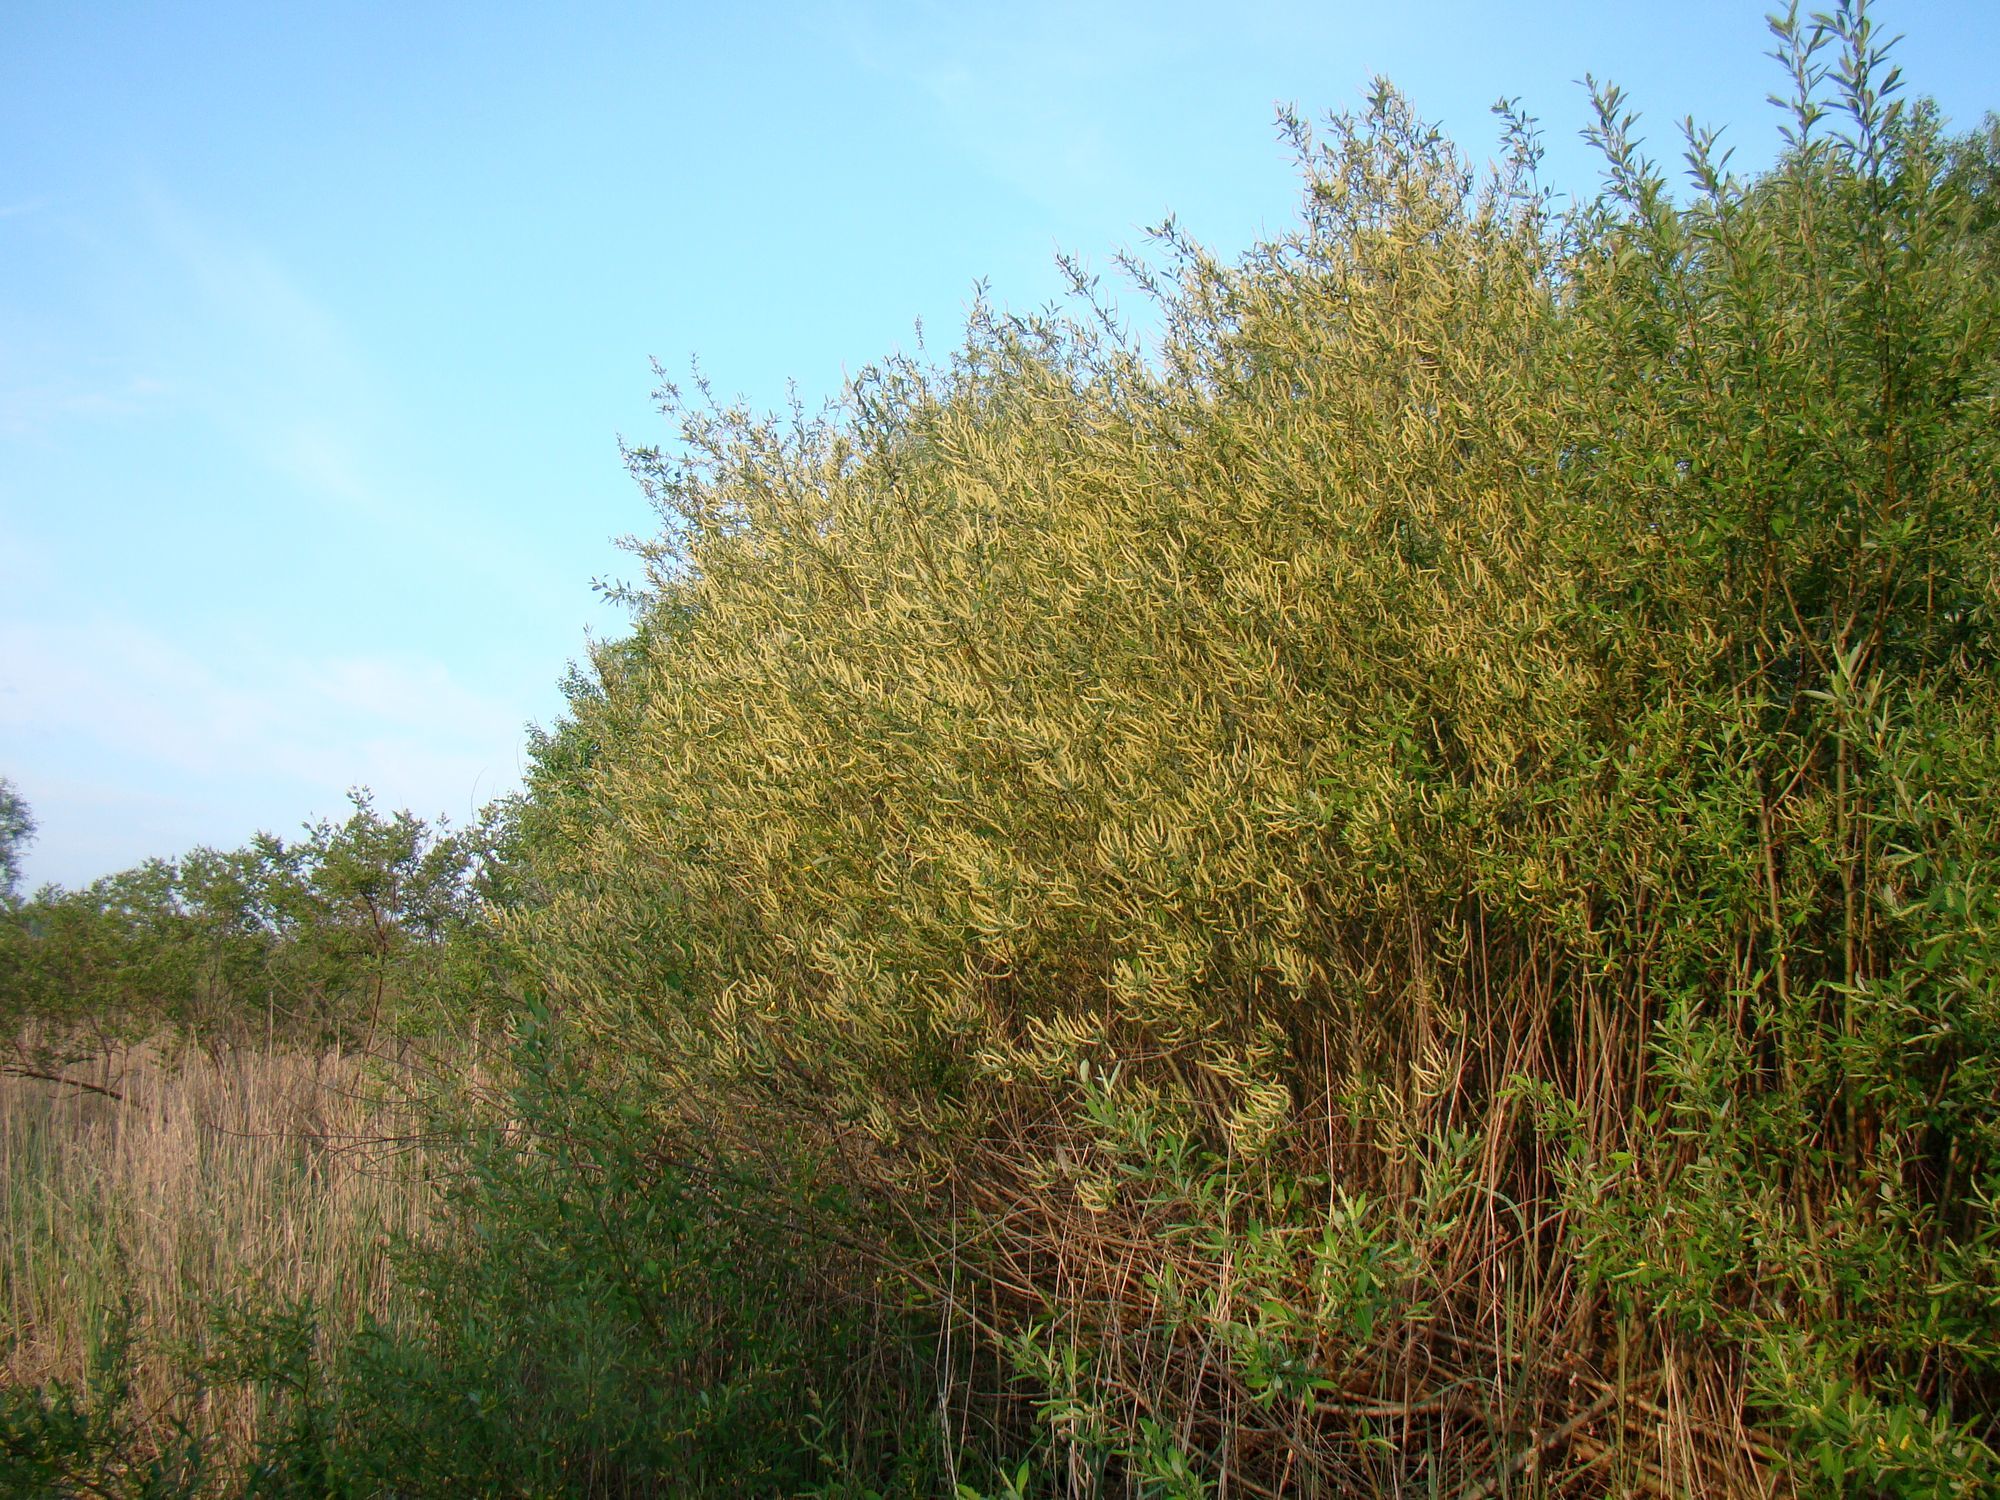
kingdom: Plantae
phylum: Tracheophyta
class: Magnoliopsida
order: Malpighiales
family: Salicaceae
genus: Salix
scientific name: Salix triandra
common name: Almond willow
